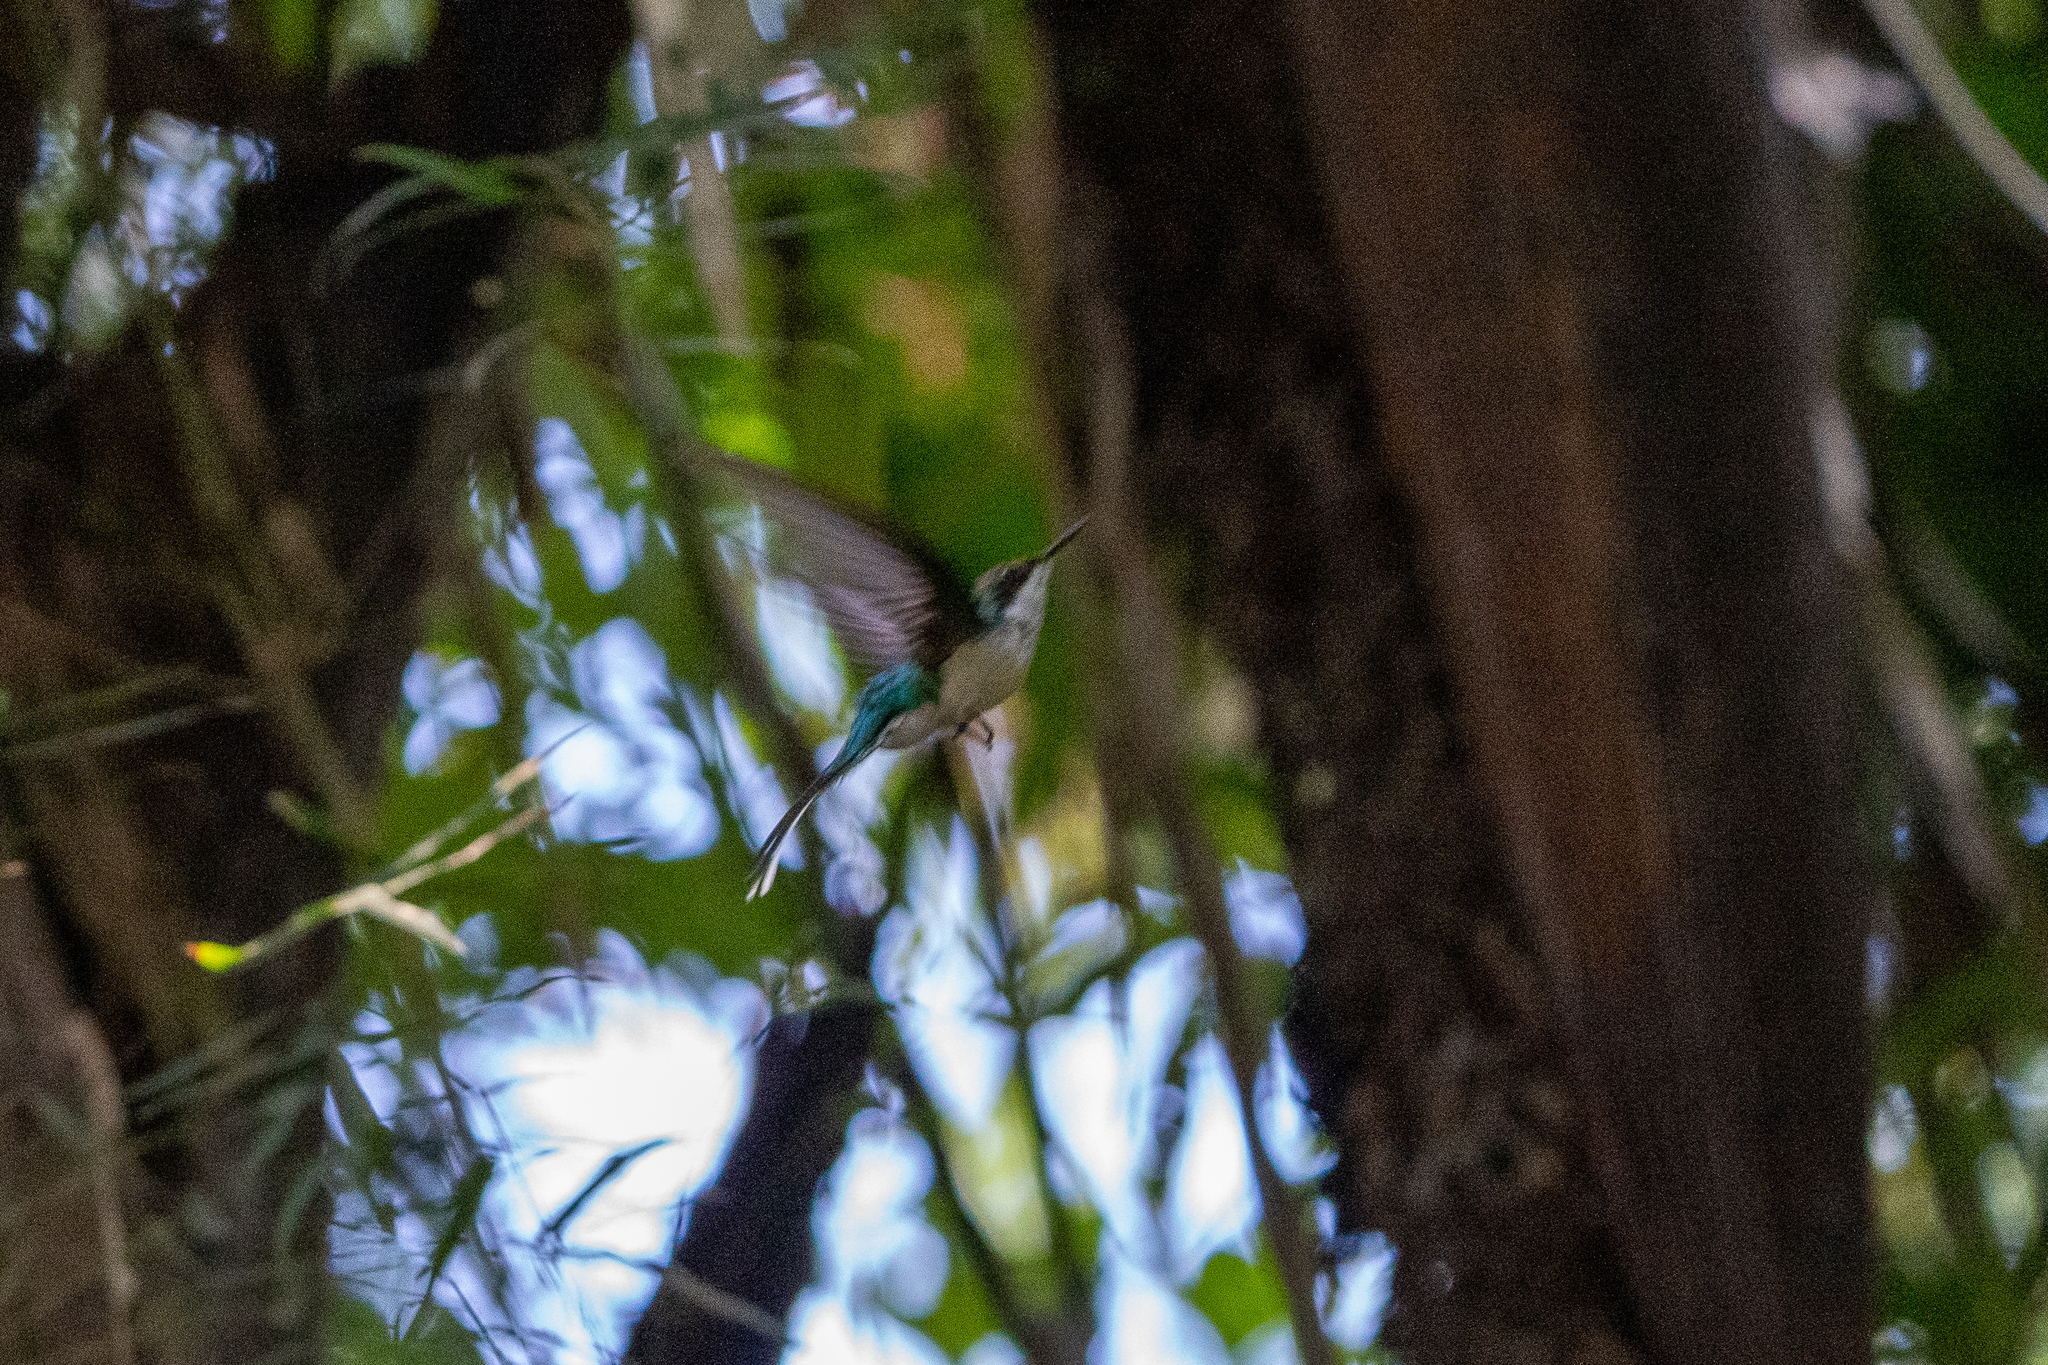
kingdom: Animalia
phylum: Chordata
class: Aves
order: Apodiformes
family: Trochilidae
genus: Heliothryx
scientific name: Heliothryx barroti
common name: Purple-crowned fairy
